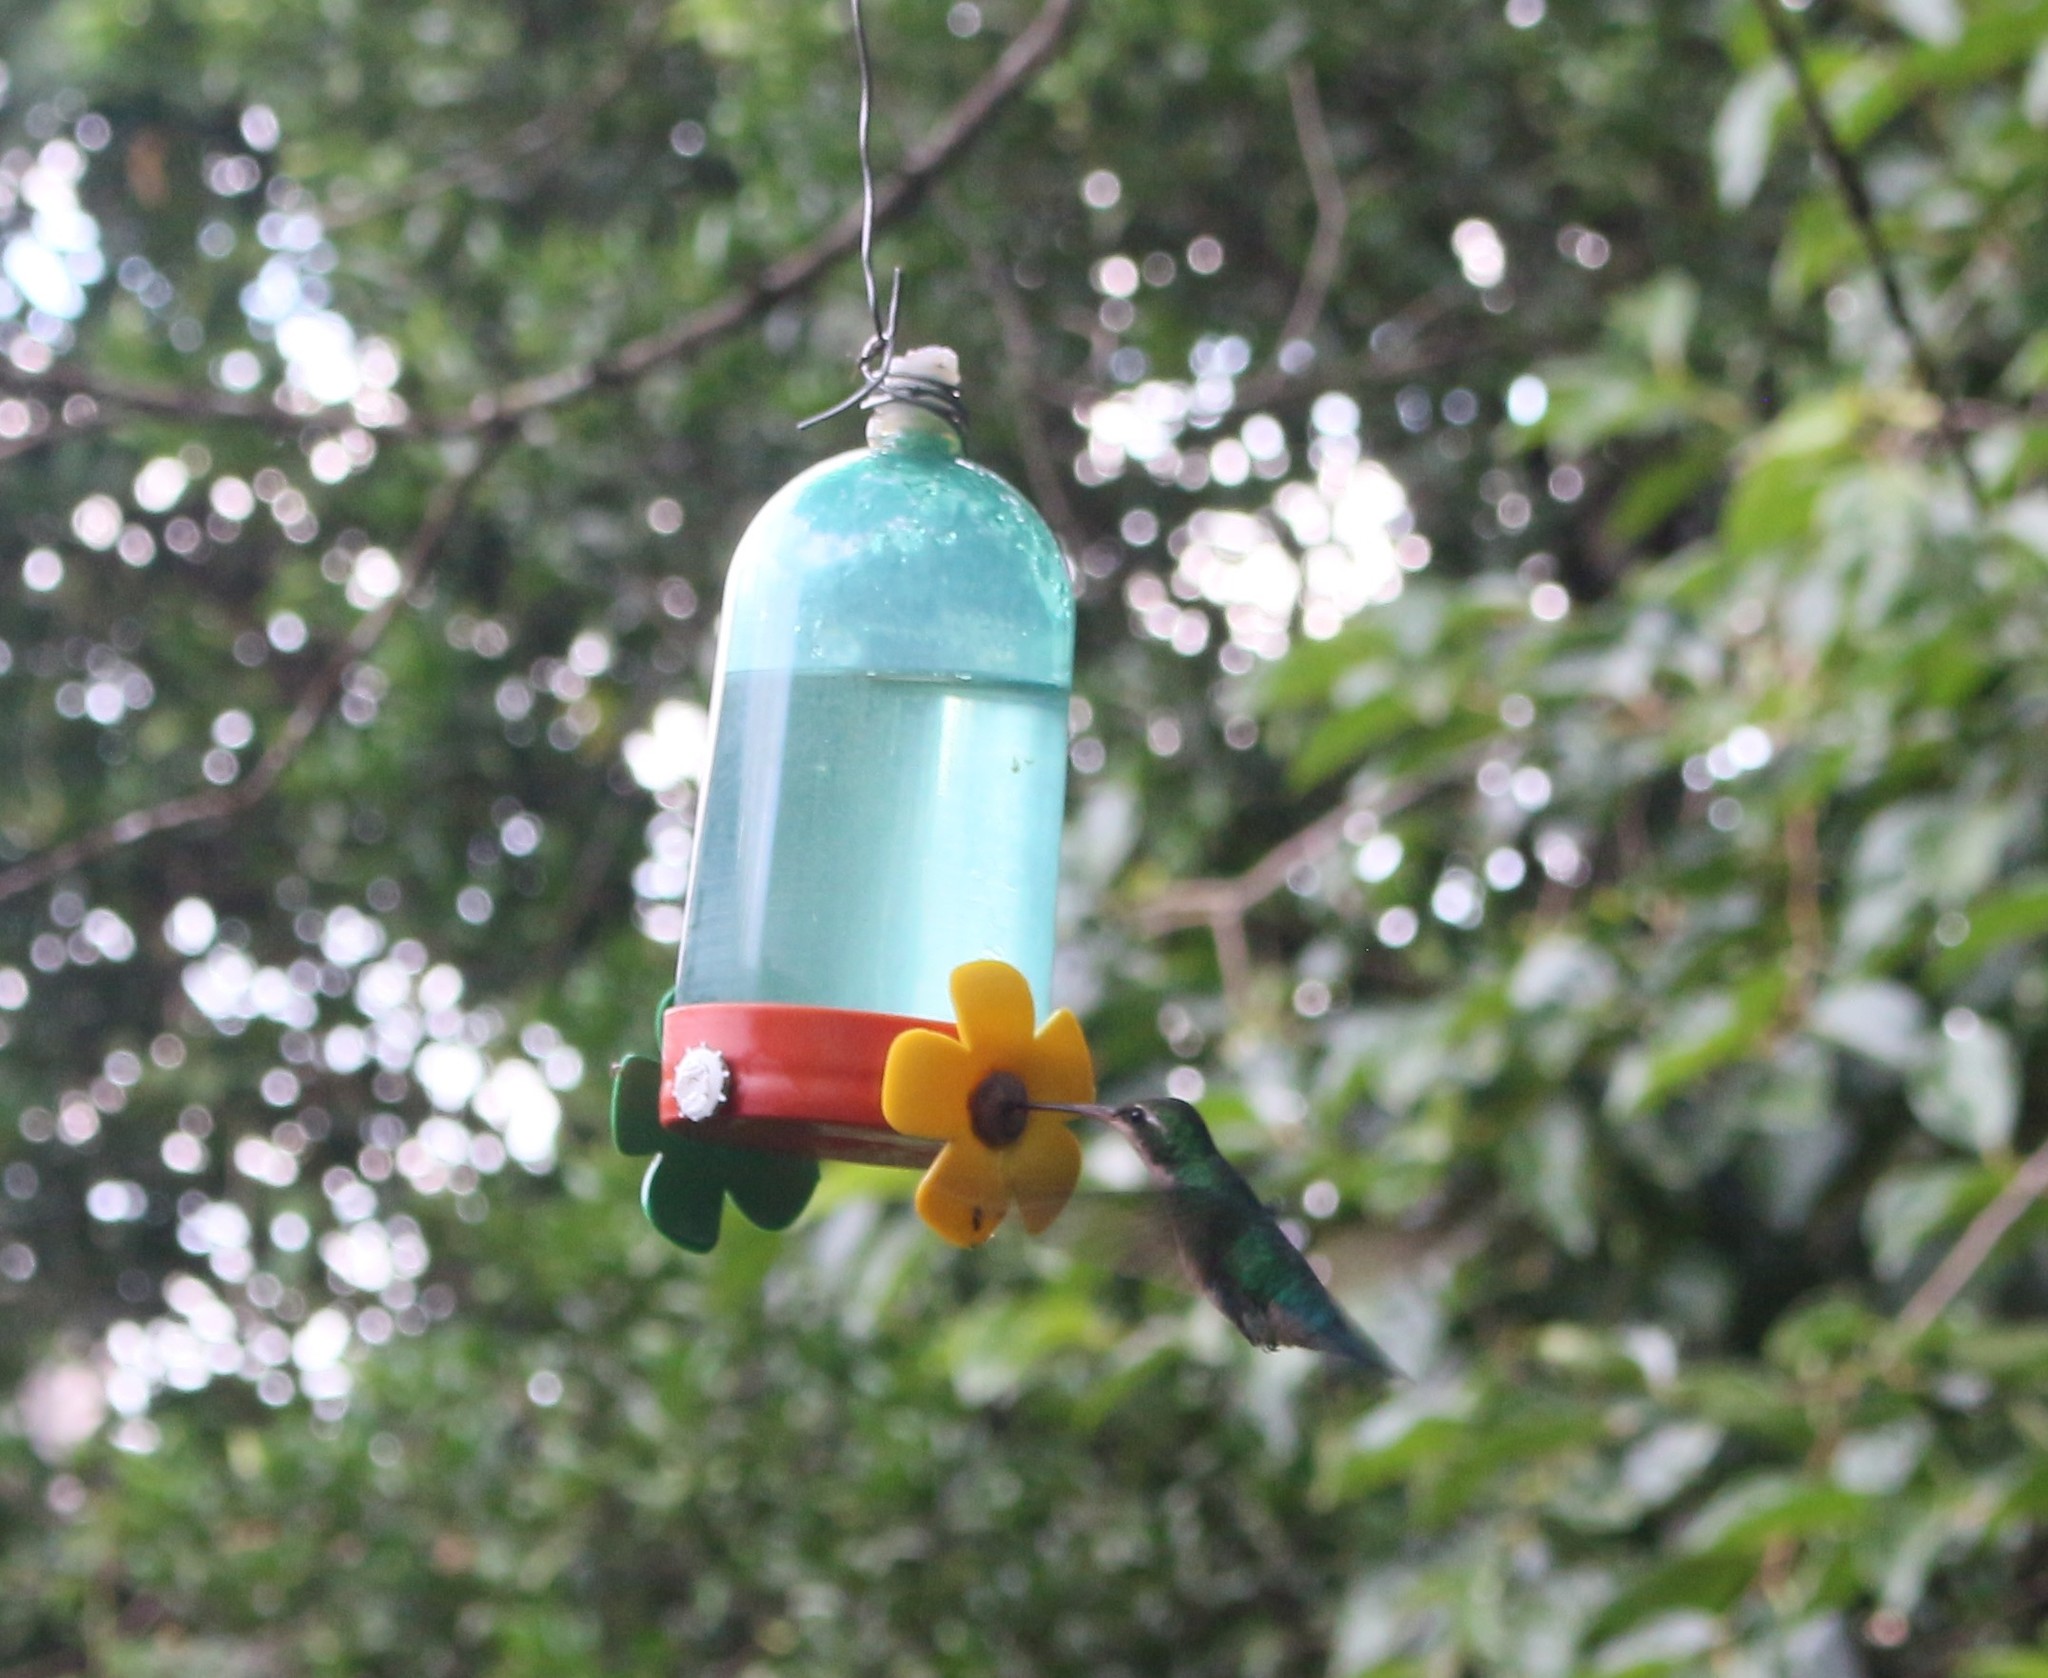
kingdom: Animalia
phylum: Chordata
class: Aves
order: Apodiformes
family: Trochilidae
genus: Chlorostilbon
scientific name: Chlorostilbon lucidus
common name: Glittering-bellied emerald
